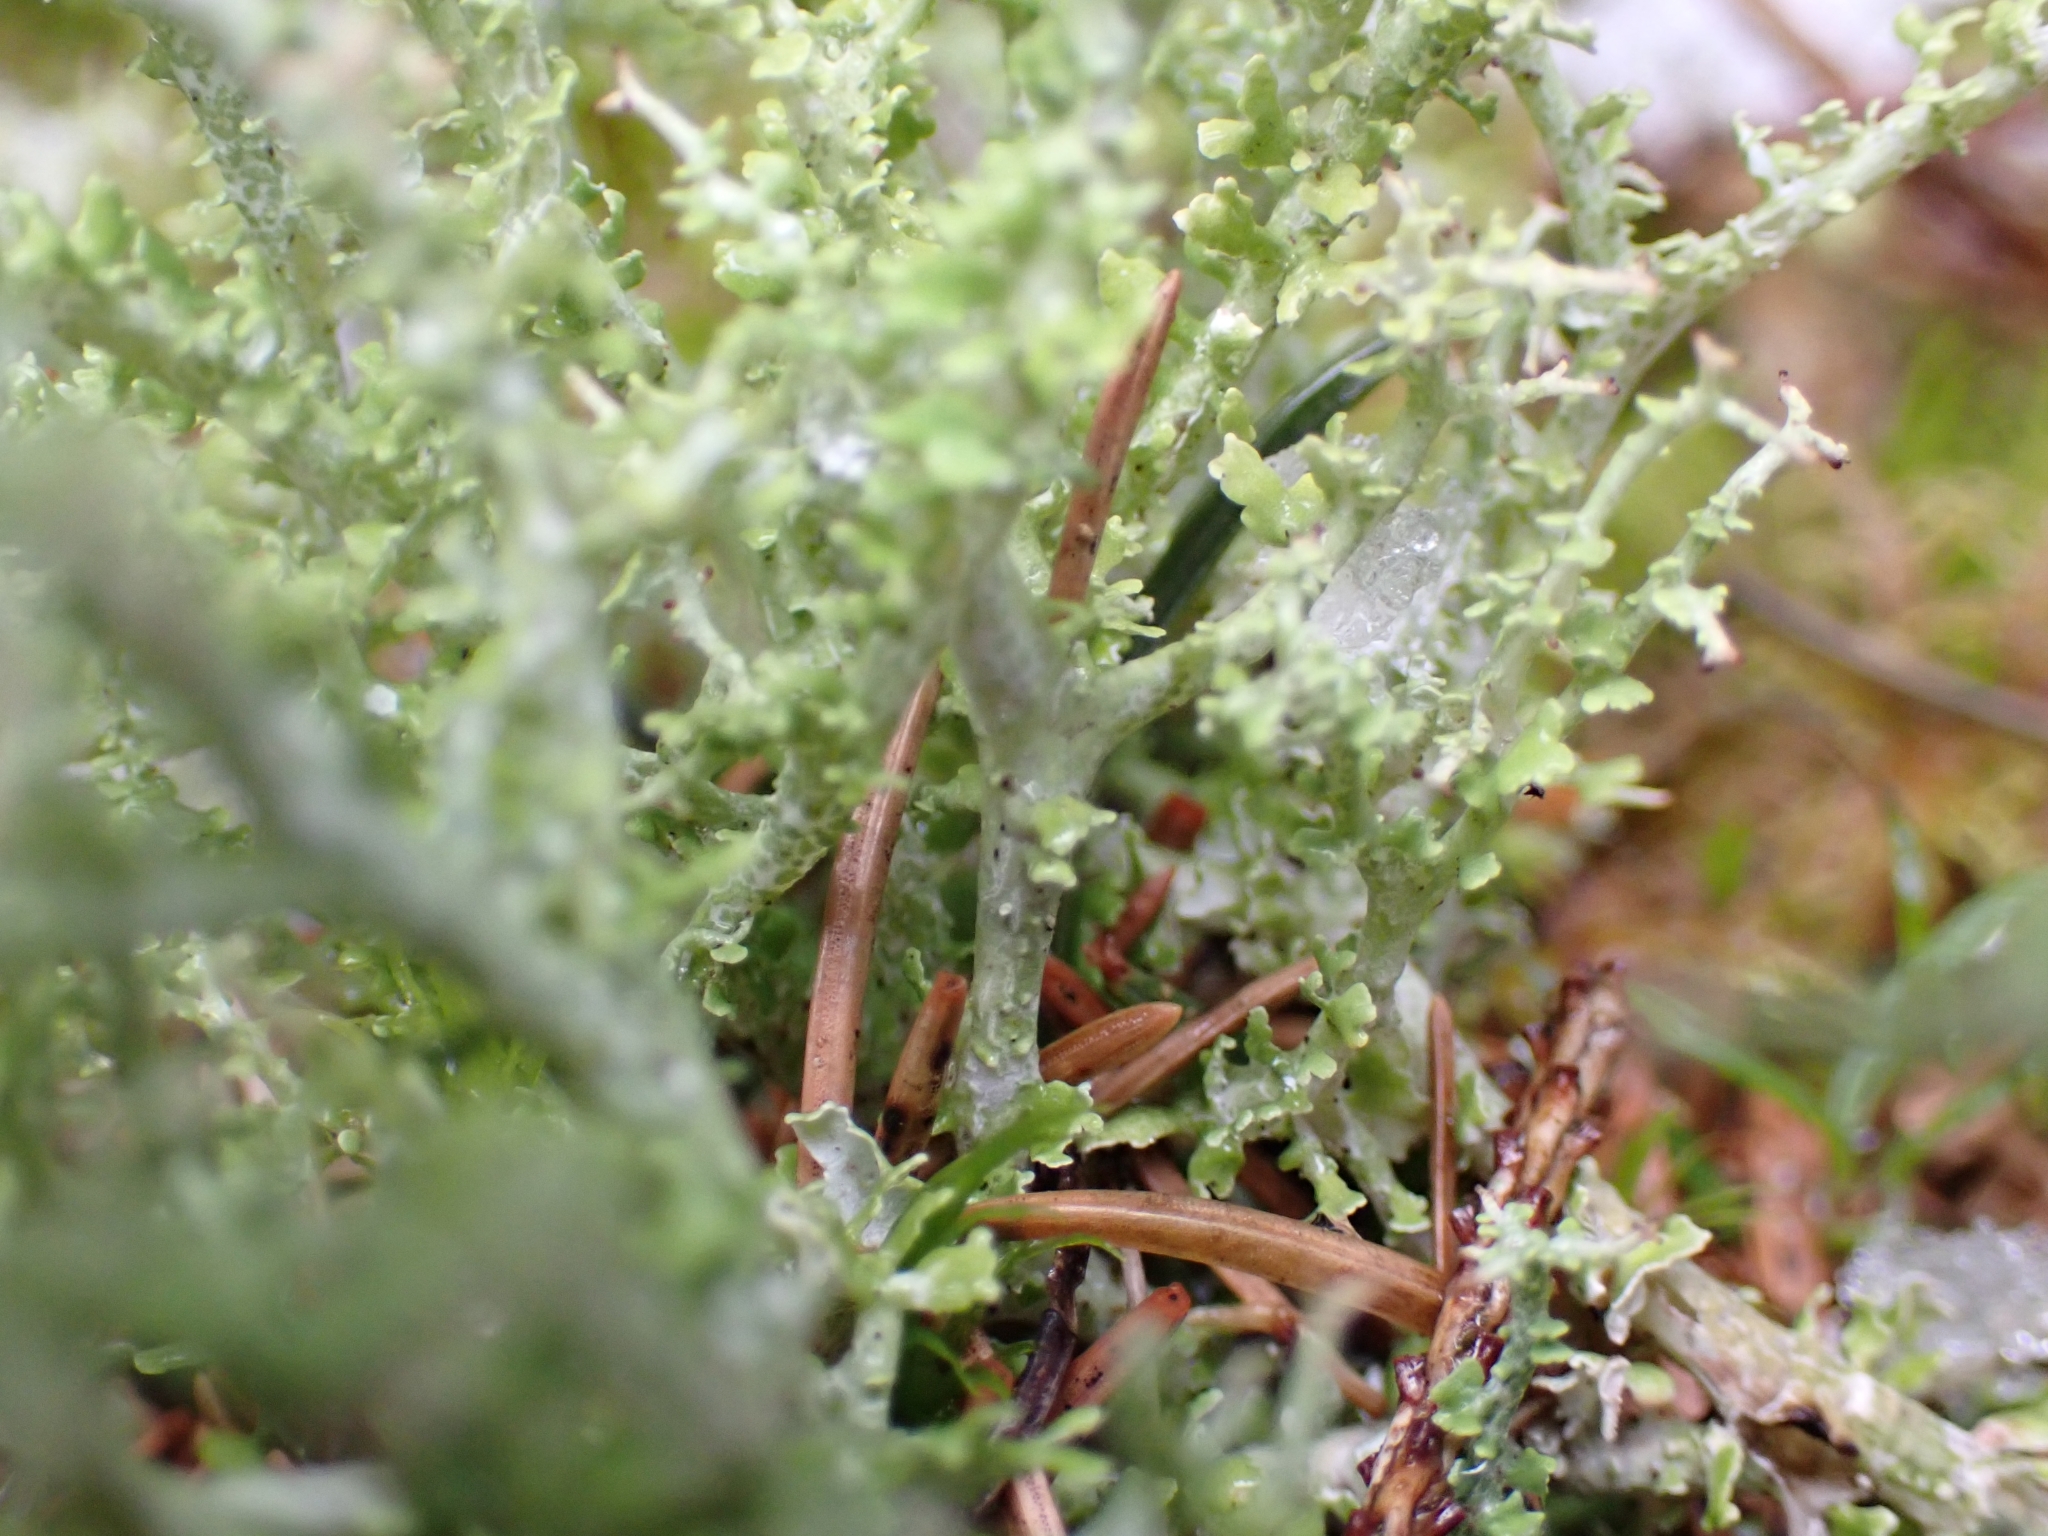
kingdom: Fungi
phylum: Ascomycota
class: Lecanoromycetes
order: Lecanorales
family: Cladoniaceae
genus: Cladonia
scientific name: Cladonia furcata
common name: Many-forked cladonia
